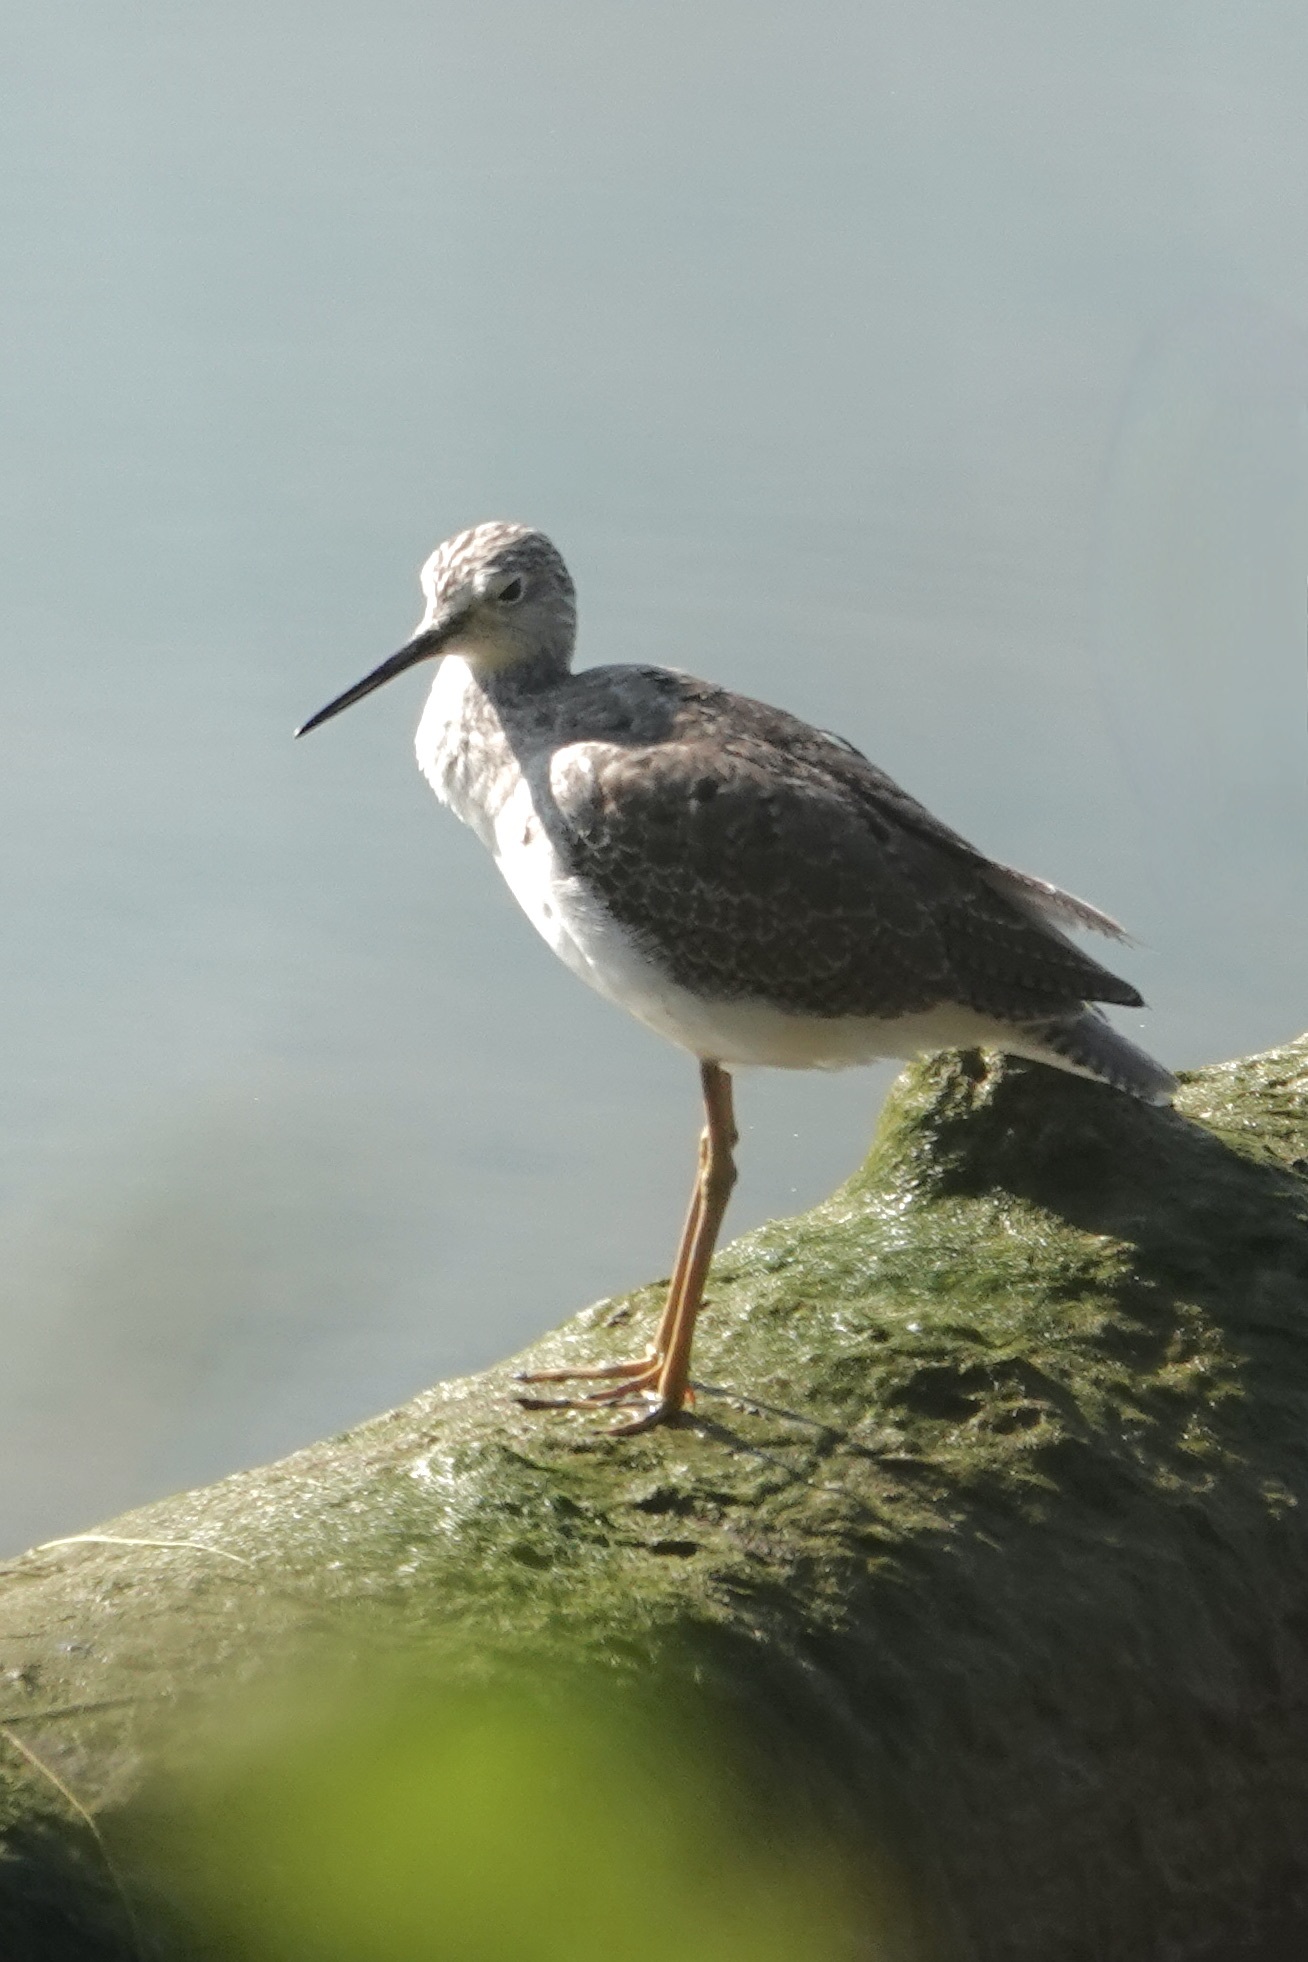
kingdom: Animalia
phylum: Chordata
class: Aves
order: Charadriiformes
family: Scolopacidae
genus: Tringa
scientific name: Tringa melanoleuca
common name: Greater yellowlegs
